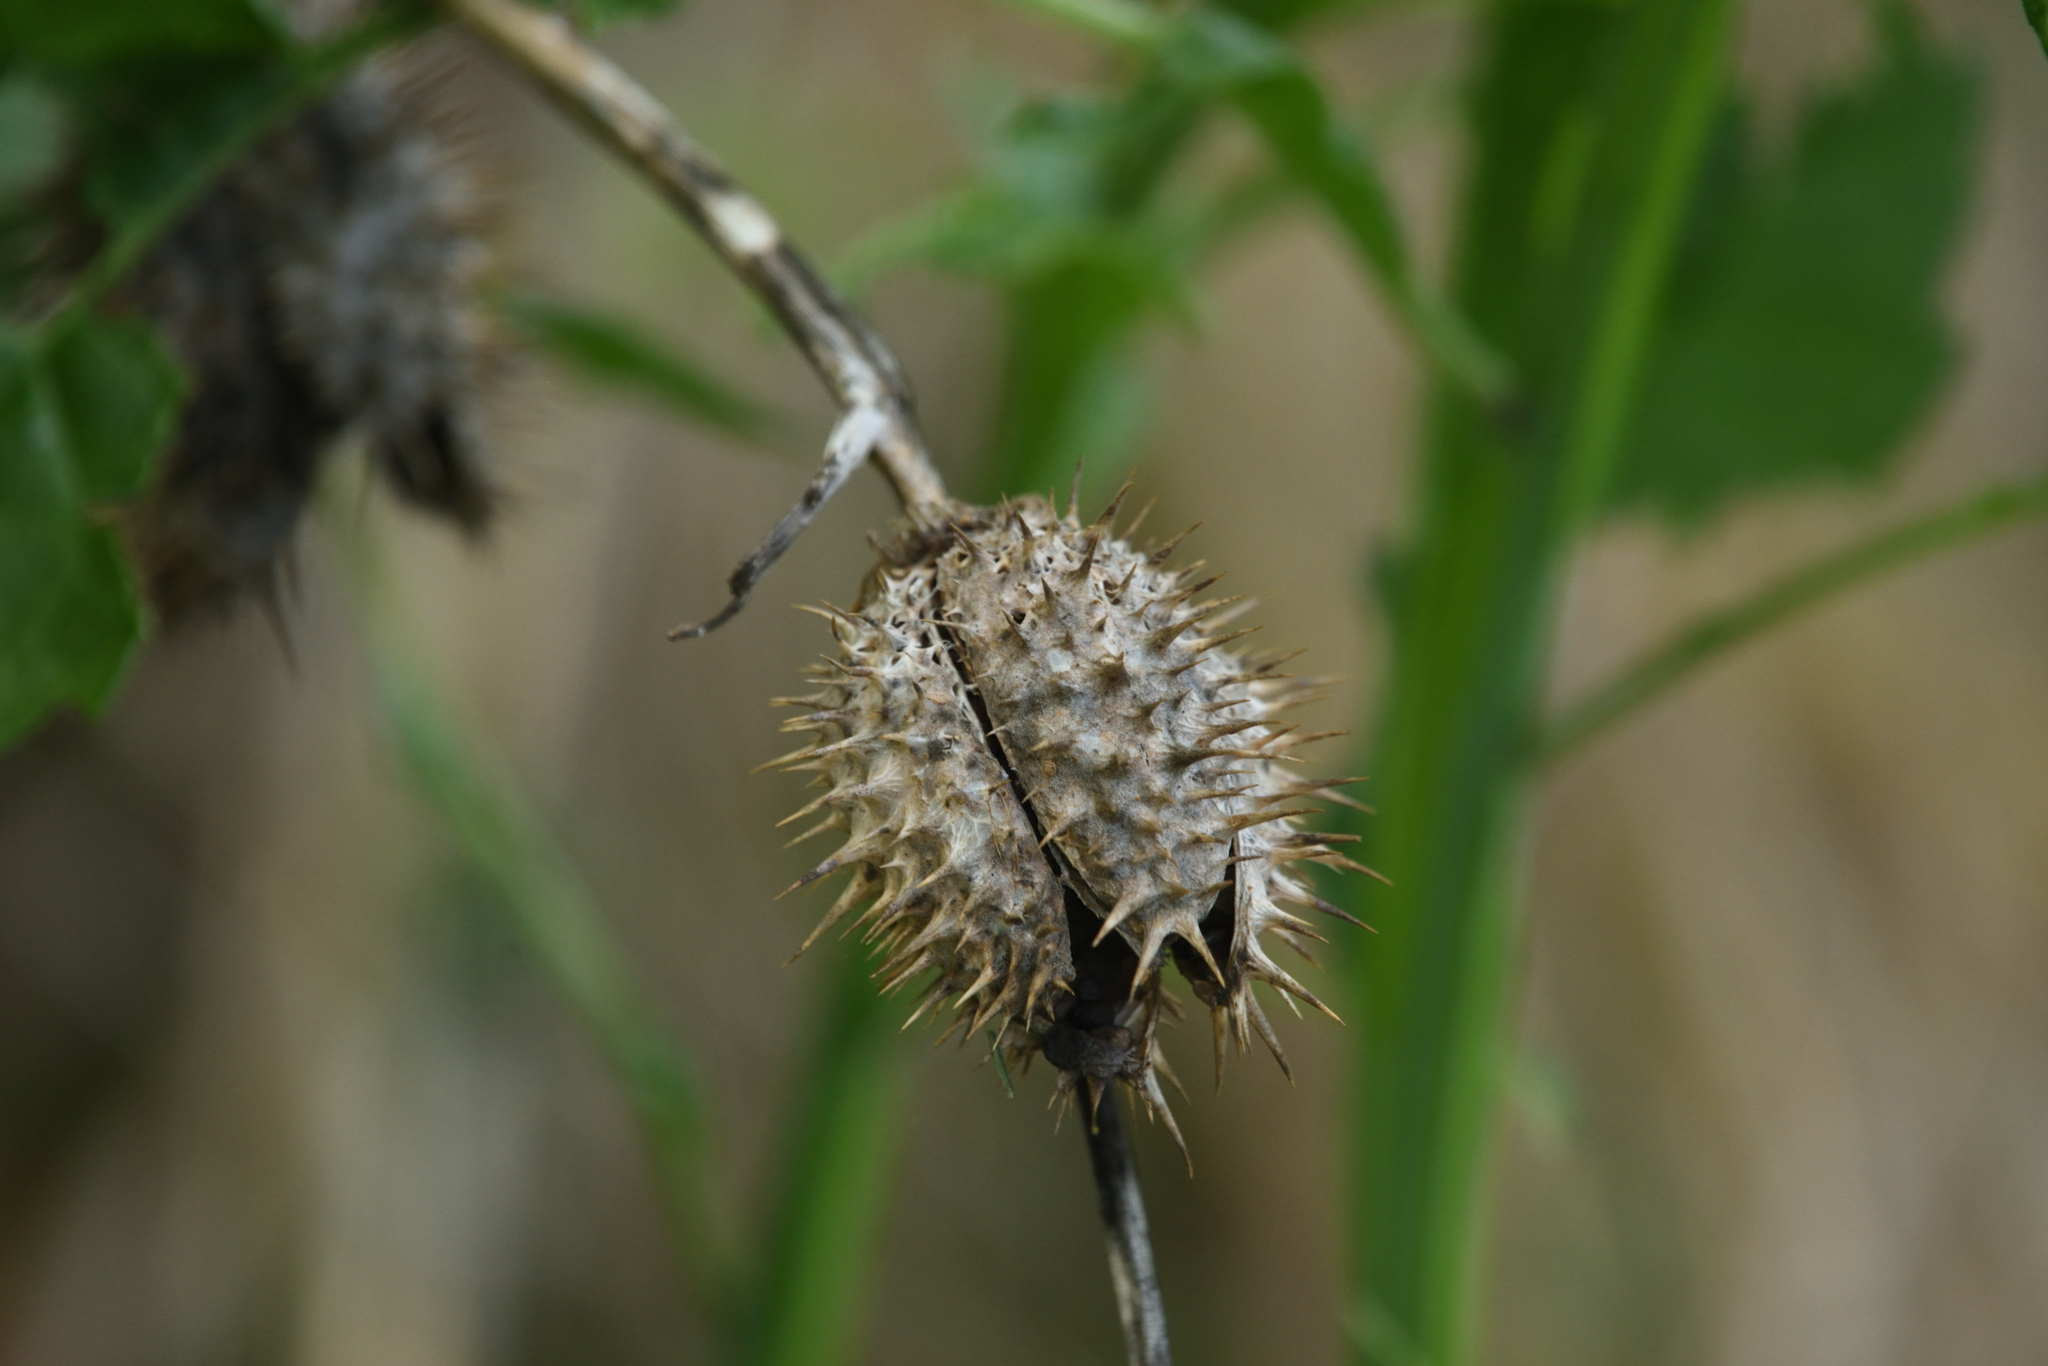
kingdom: Plantae
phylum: Tracheophyta
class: Magnoliopsida
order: Solanales
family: Solanaceae
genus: Datura
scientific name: Datura wrightii
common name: Sacred thorn-apple
